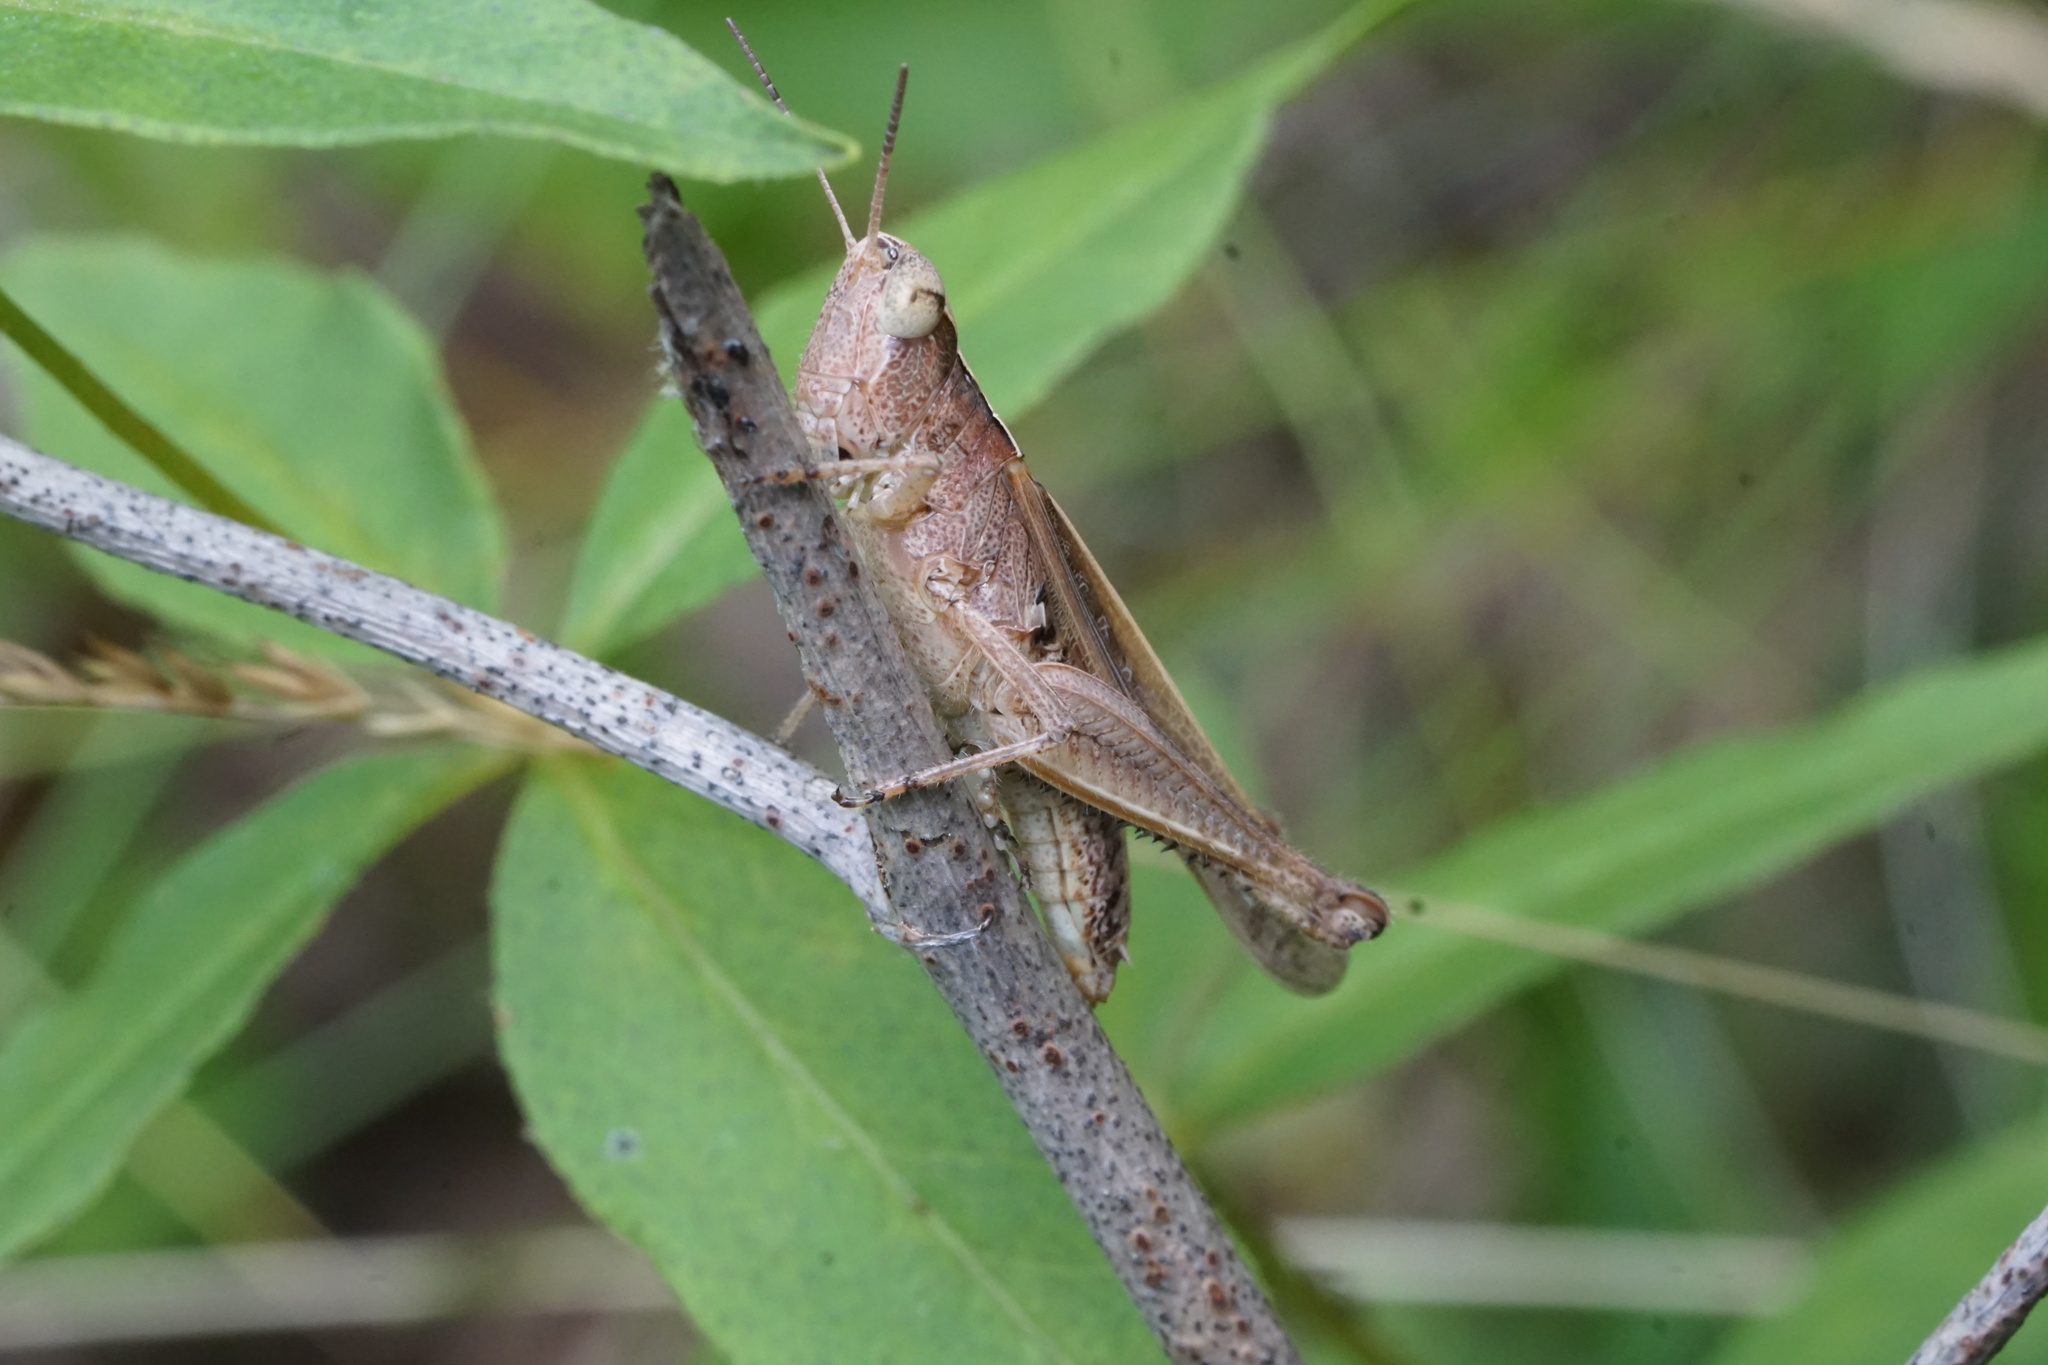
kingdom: Animalia
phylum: Arthropoda
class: Insecta
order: Orthoptera
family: Acrididae
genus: Orphulella
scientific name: Orphulella pelidna
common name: Spotted-wing grasshopper
